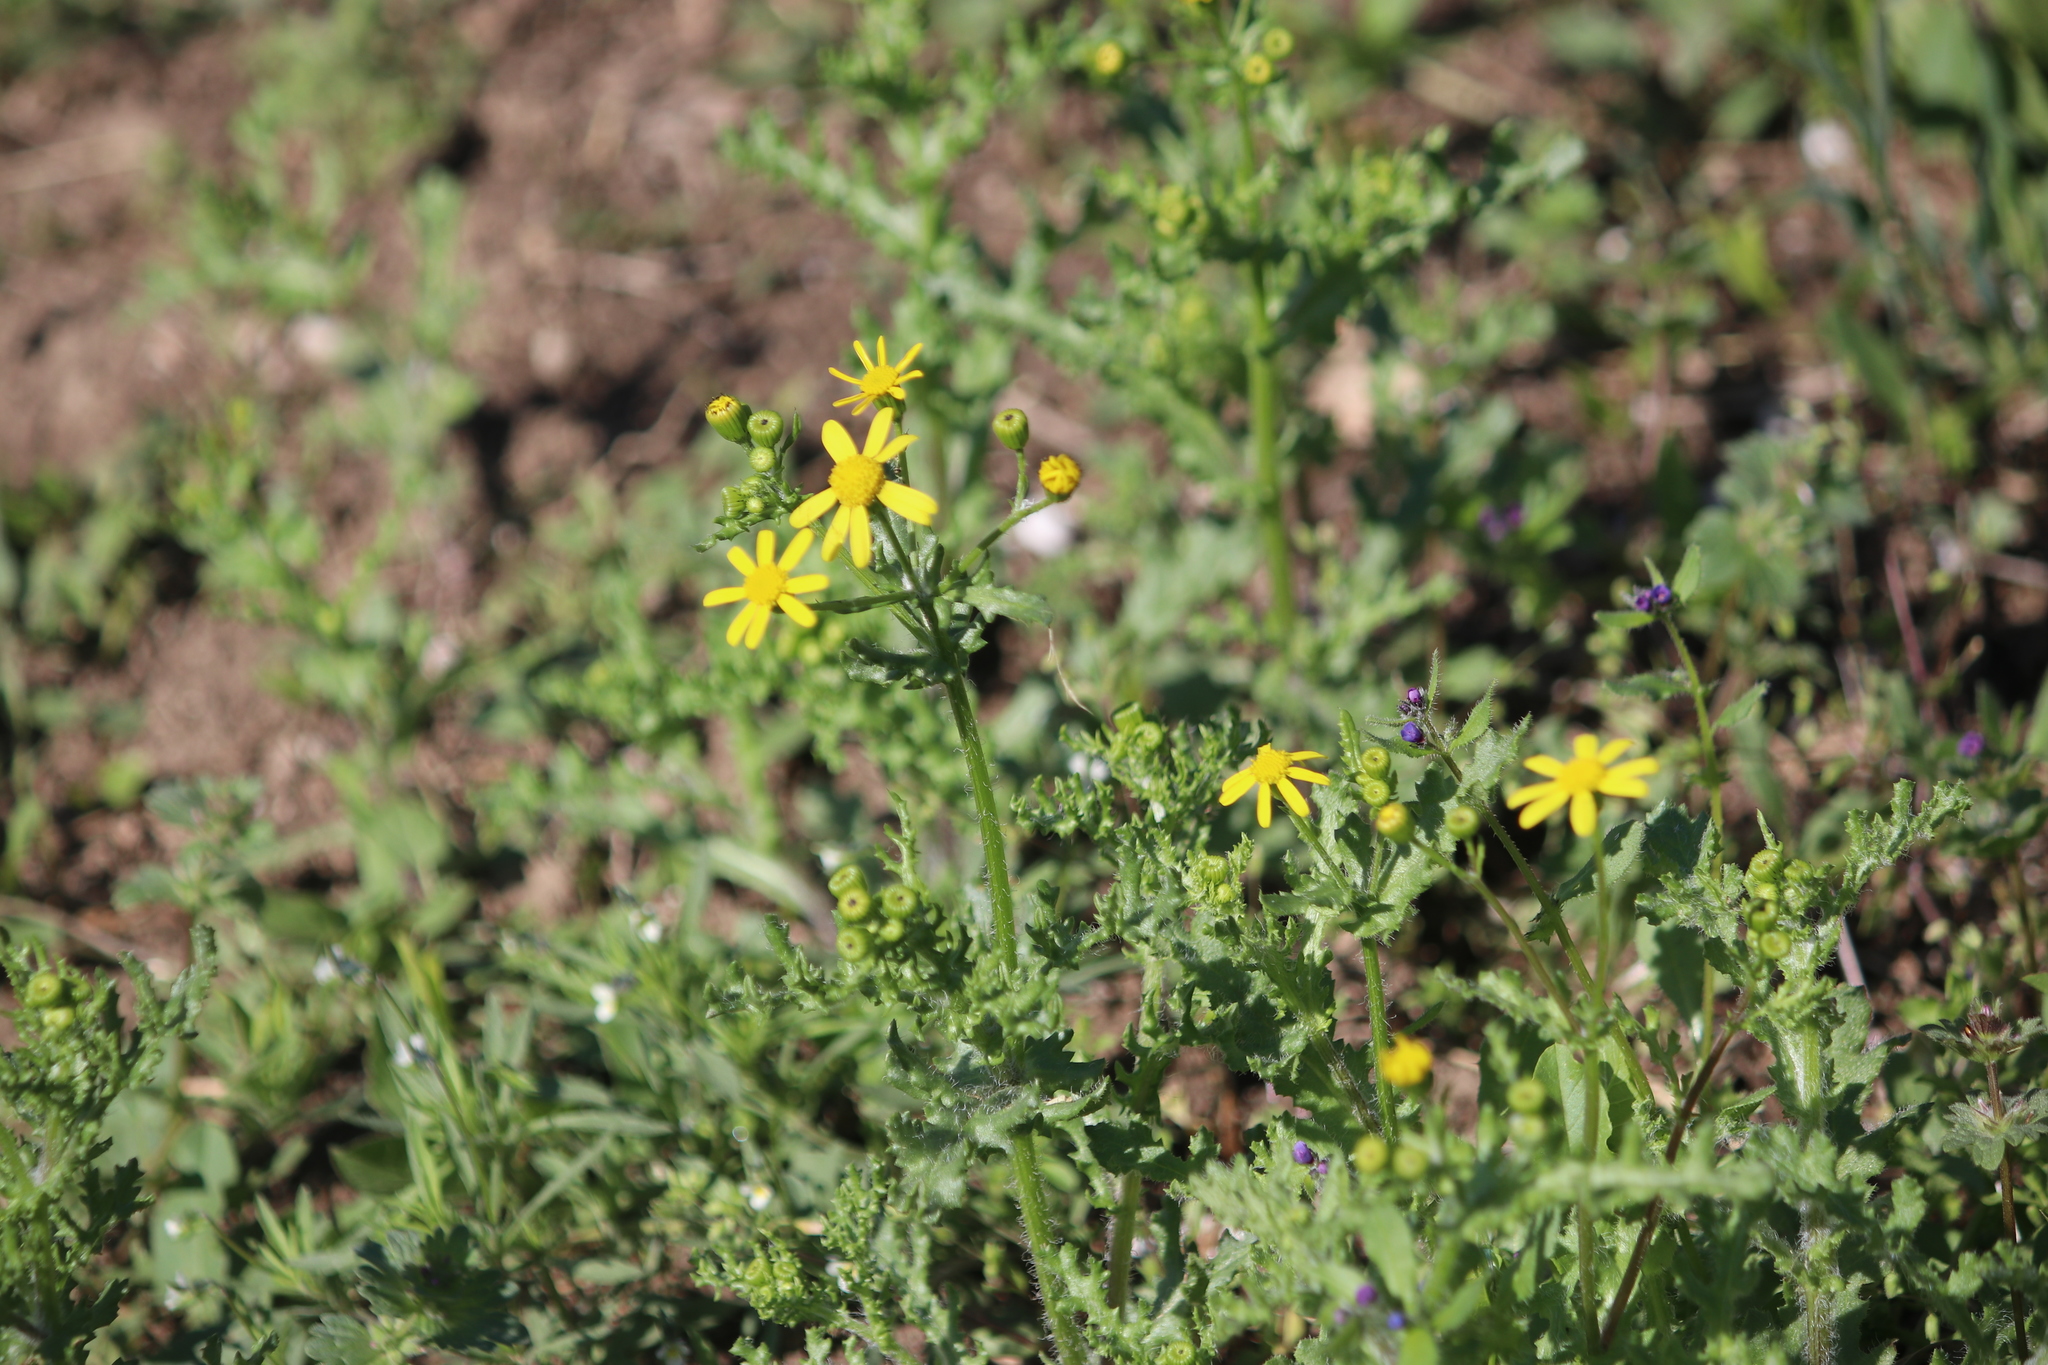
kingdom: Plantae
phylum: Tracheophyta
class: Magnoliopsida
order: Asterales
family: Asteraceae
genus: Senecio
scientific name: Senecio vernalis
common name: Eastern groundsel
